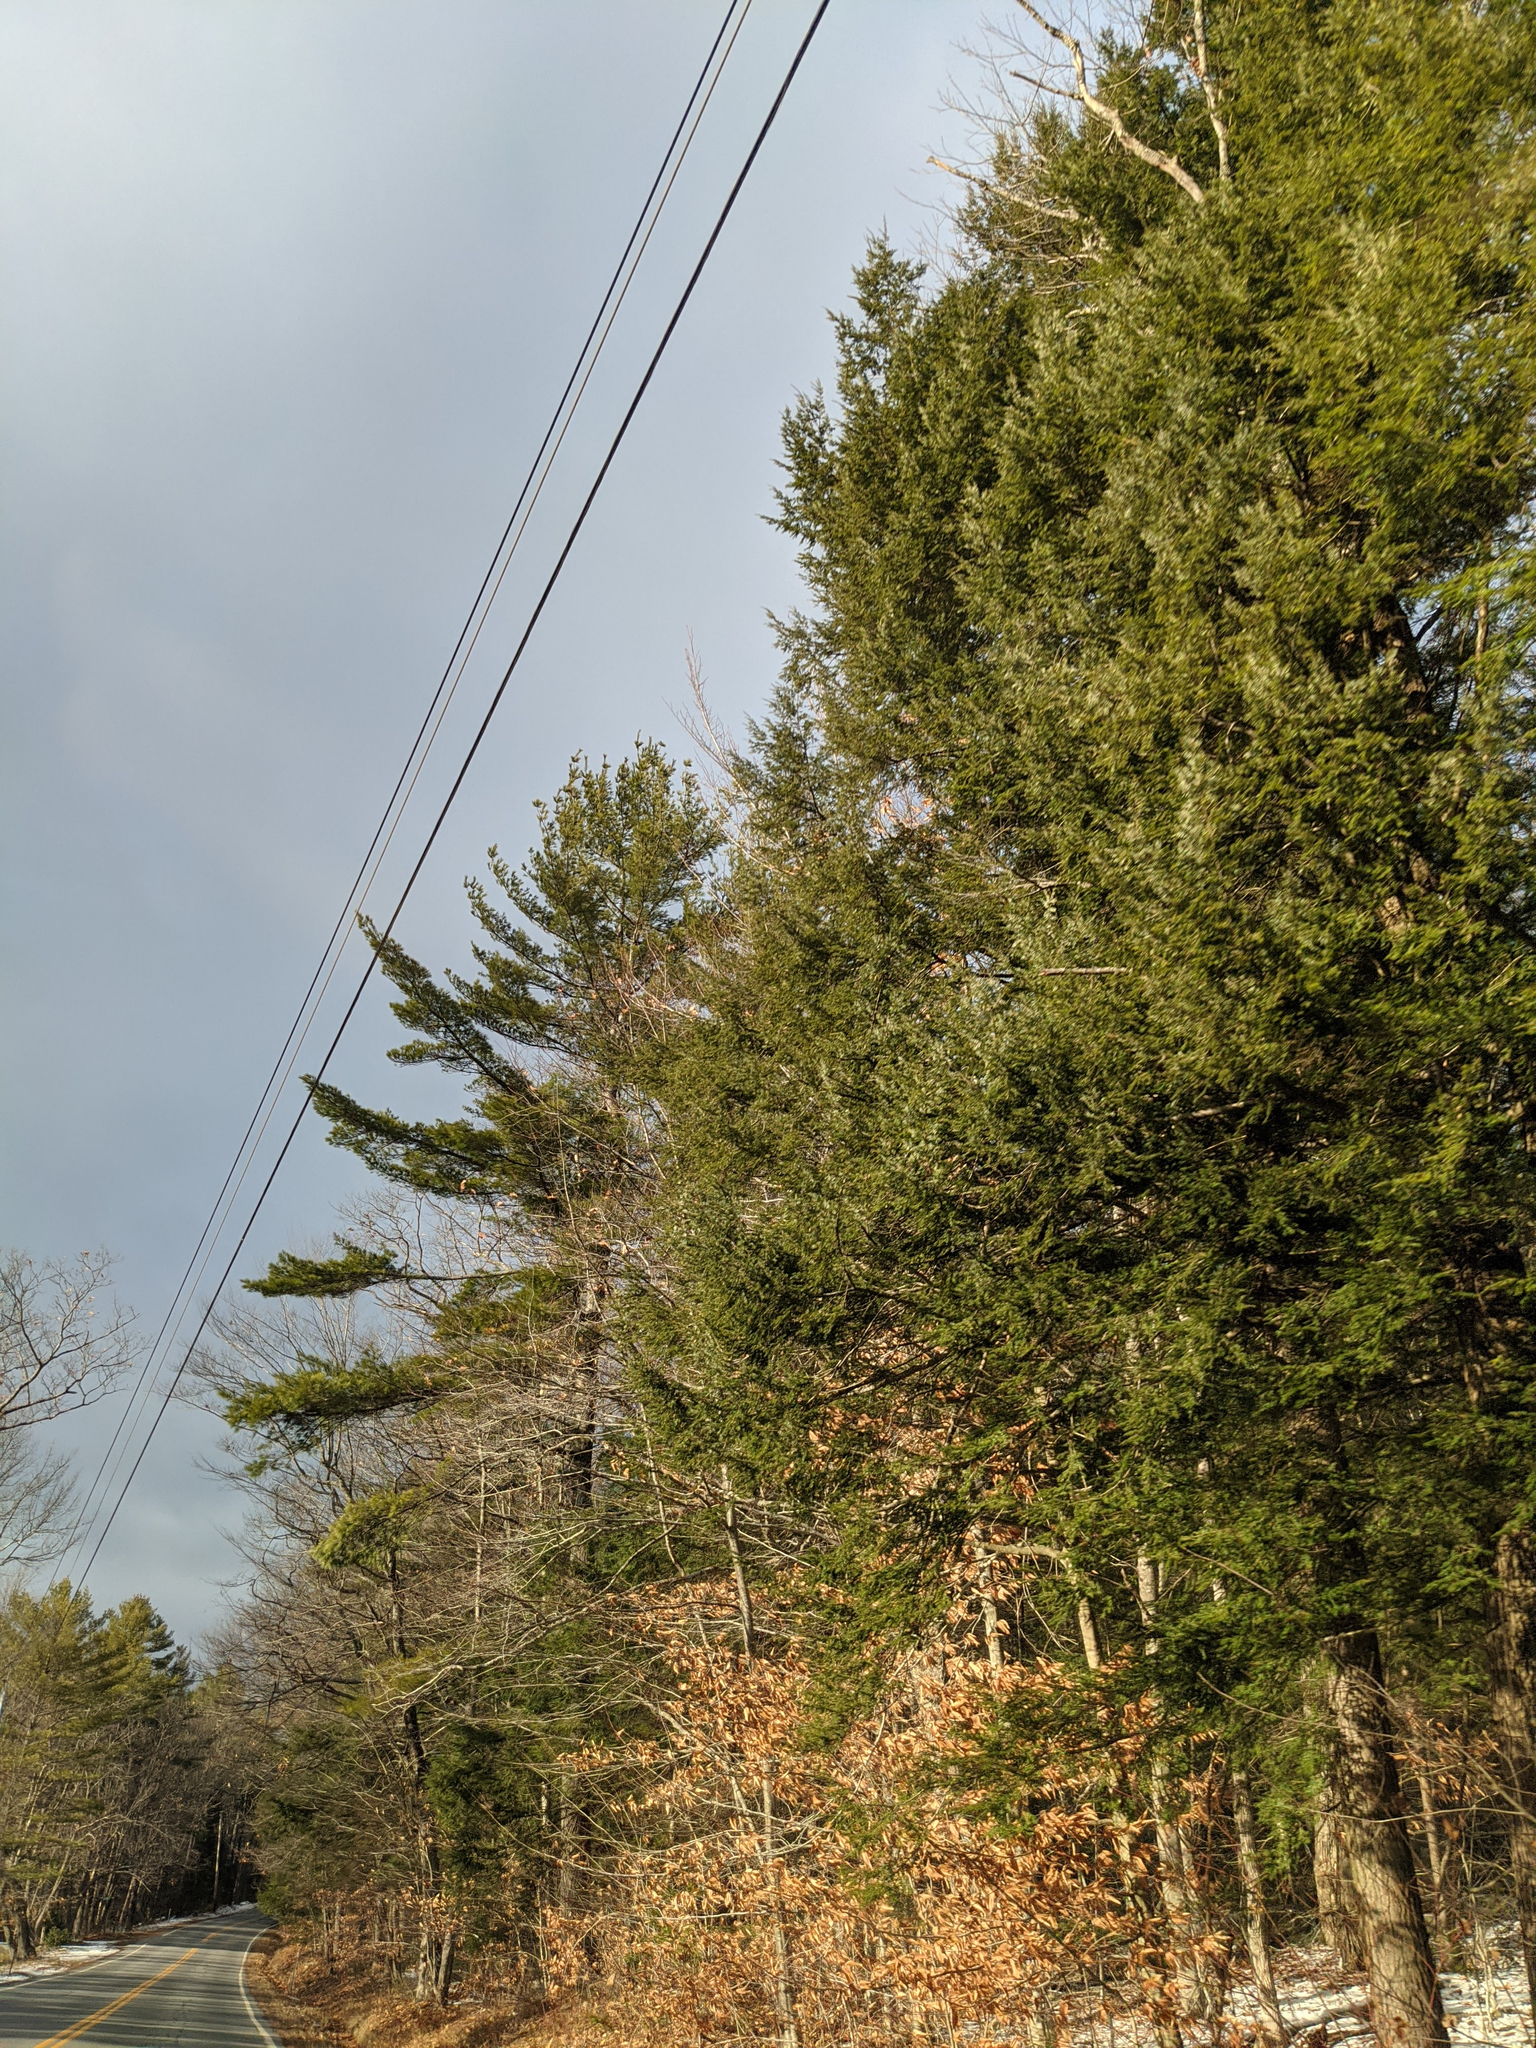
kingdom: Plantae
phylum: Tracheophyta
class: Pinopsida
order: Pinales
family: Pinaceae
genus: Pinus
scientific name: Pinus strobus
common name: Weymouth pine
